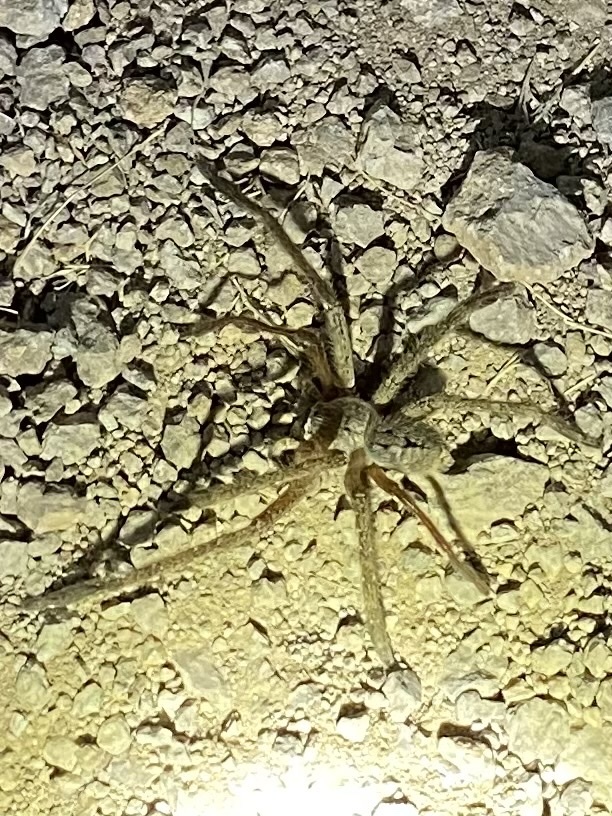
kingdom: Animalia
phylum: Arthropoda
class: Arachnida
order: Araneae
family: Sparassidae
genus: Olios
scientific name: Olios giganteus
